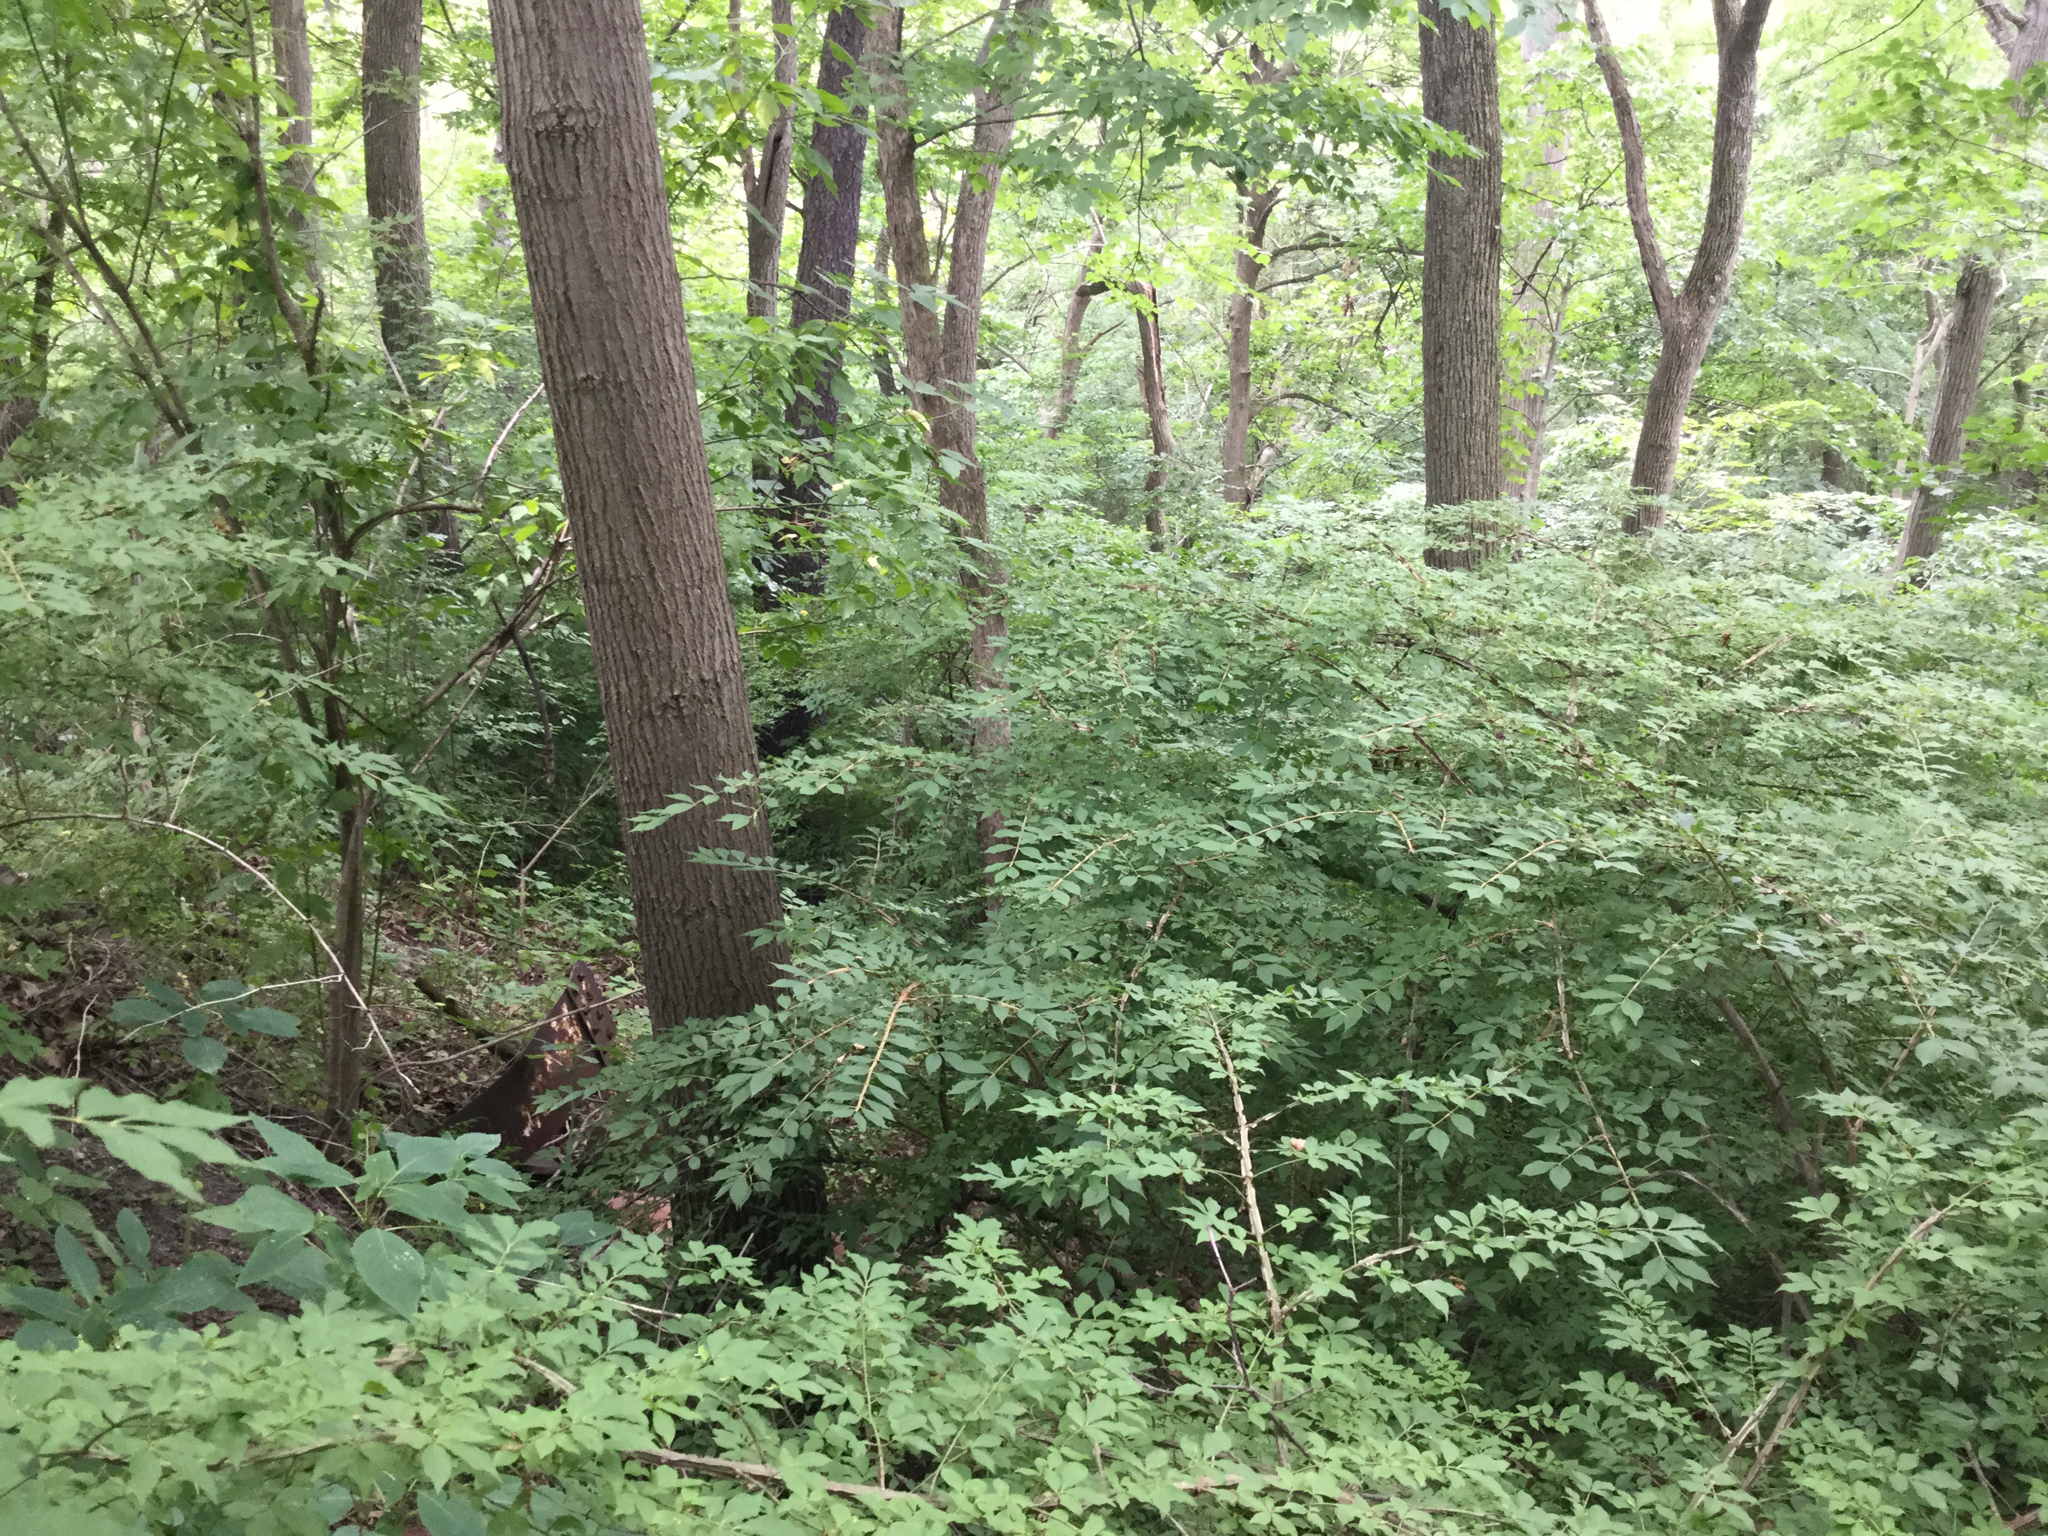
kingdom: Plantae
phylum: Tracheophyta
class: Magnoliopsida
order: Celastrales
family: Celastraceae
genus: Euonymus
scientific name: Euonymus alatus
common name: Winged euonymus
